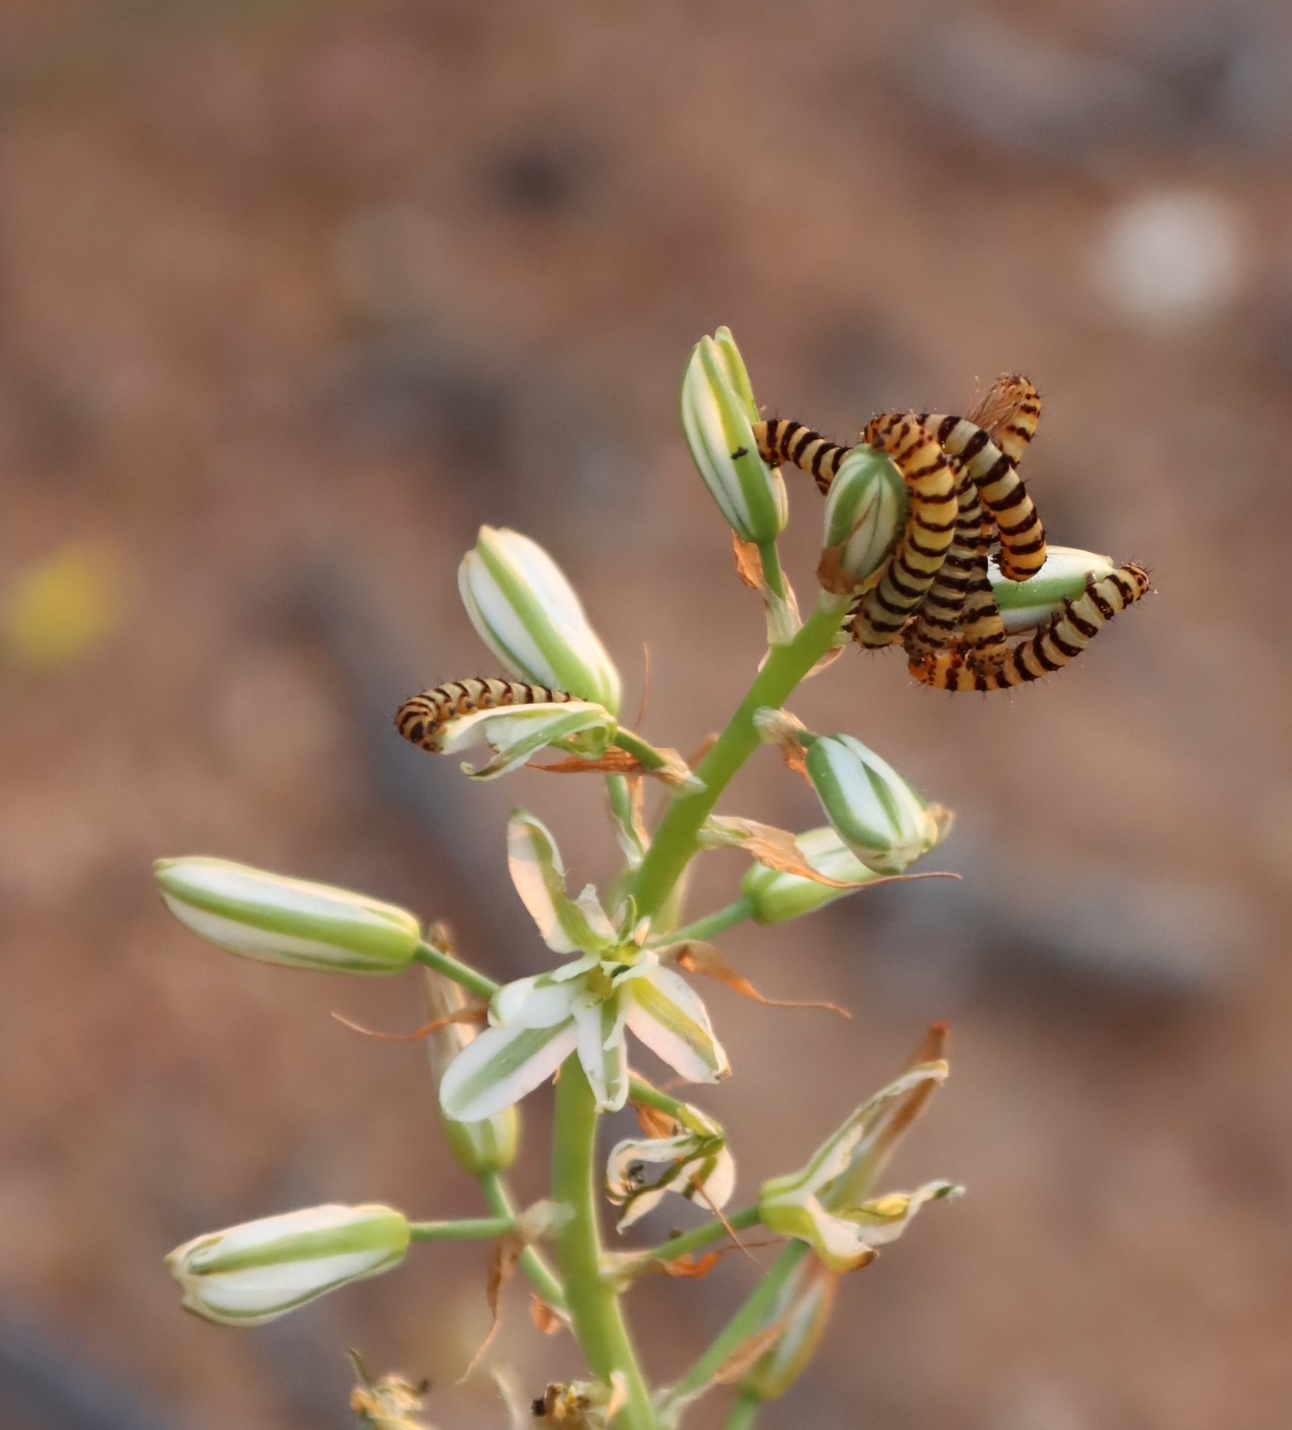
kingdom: Animalia
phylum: Arthropoda
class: Insecta
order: Lepidoptera
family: Noctuidae
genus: Diaphone
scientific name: Diaphone eumela
